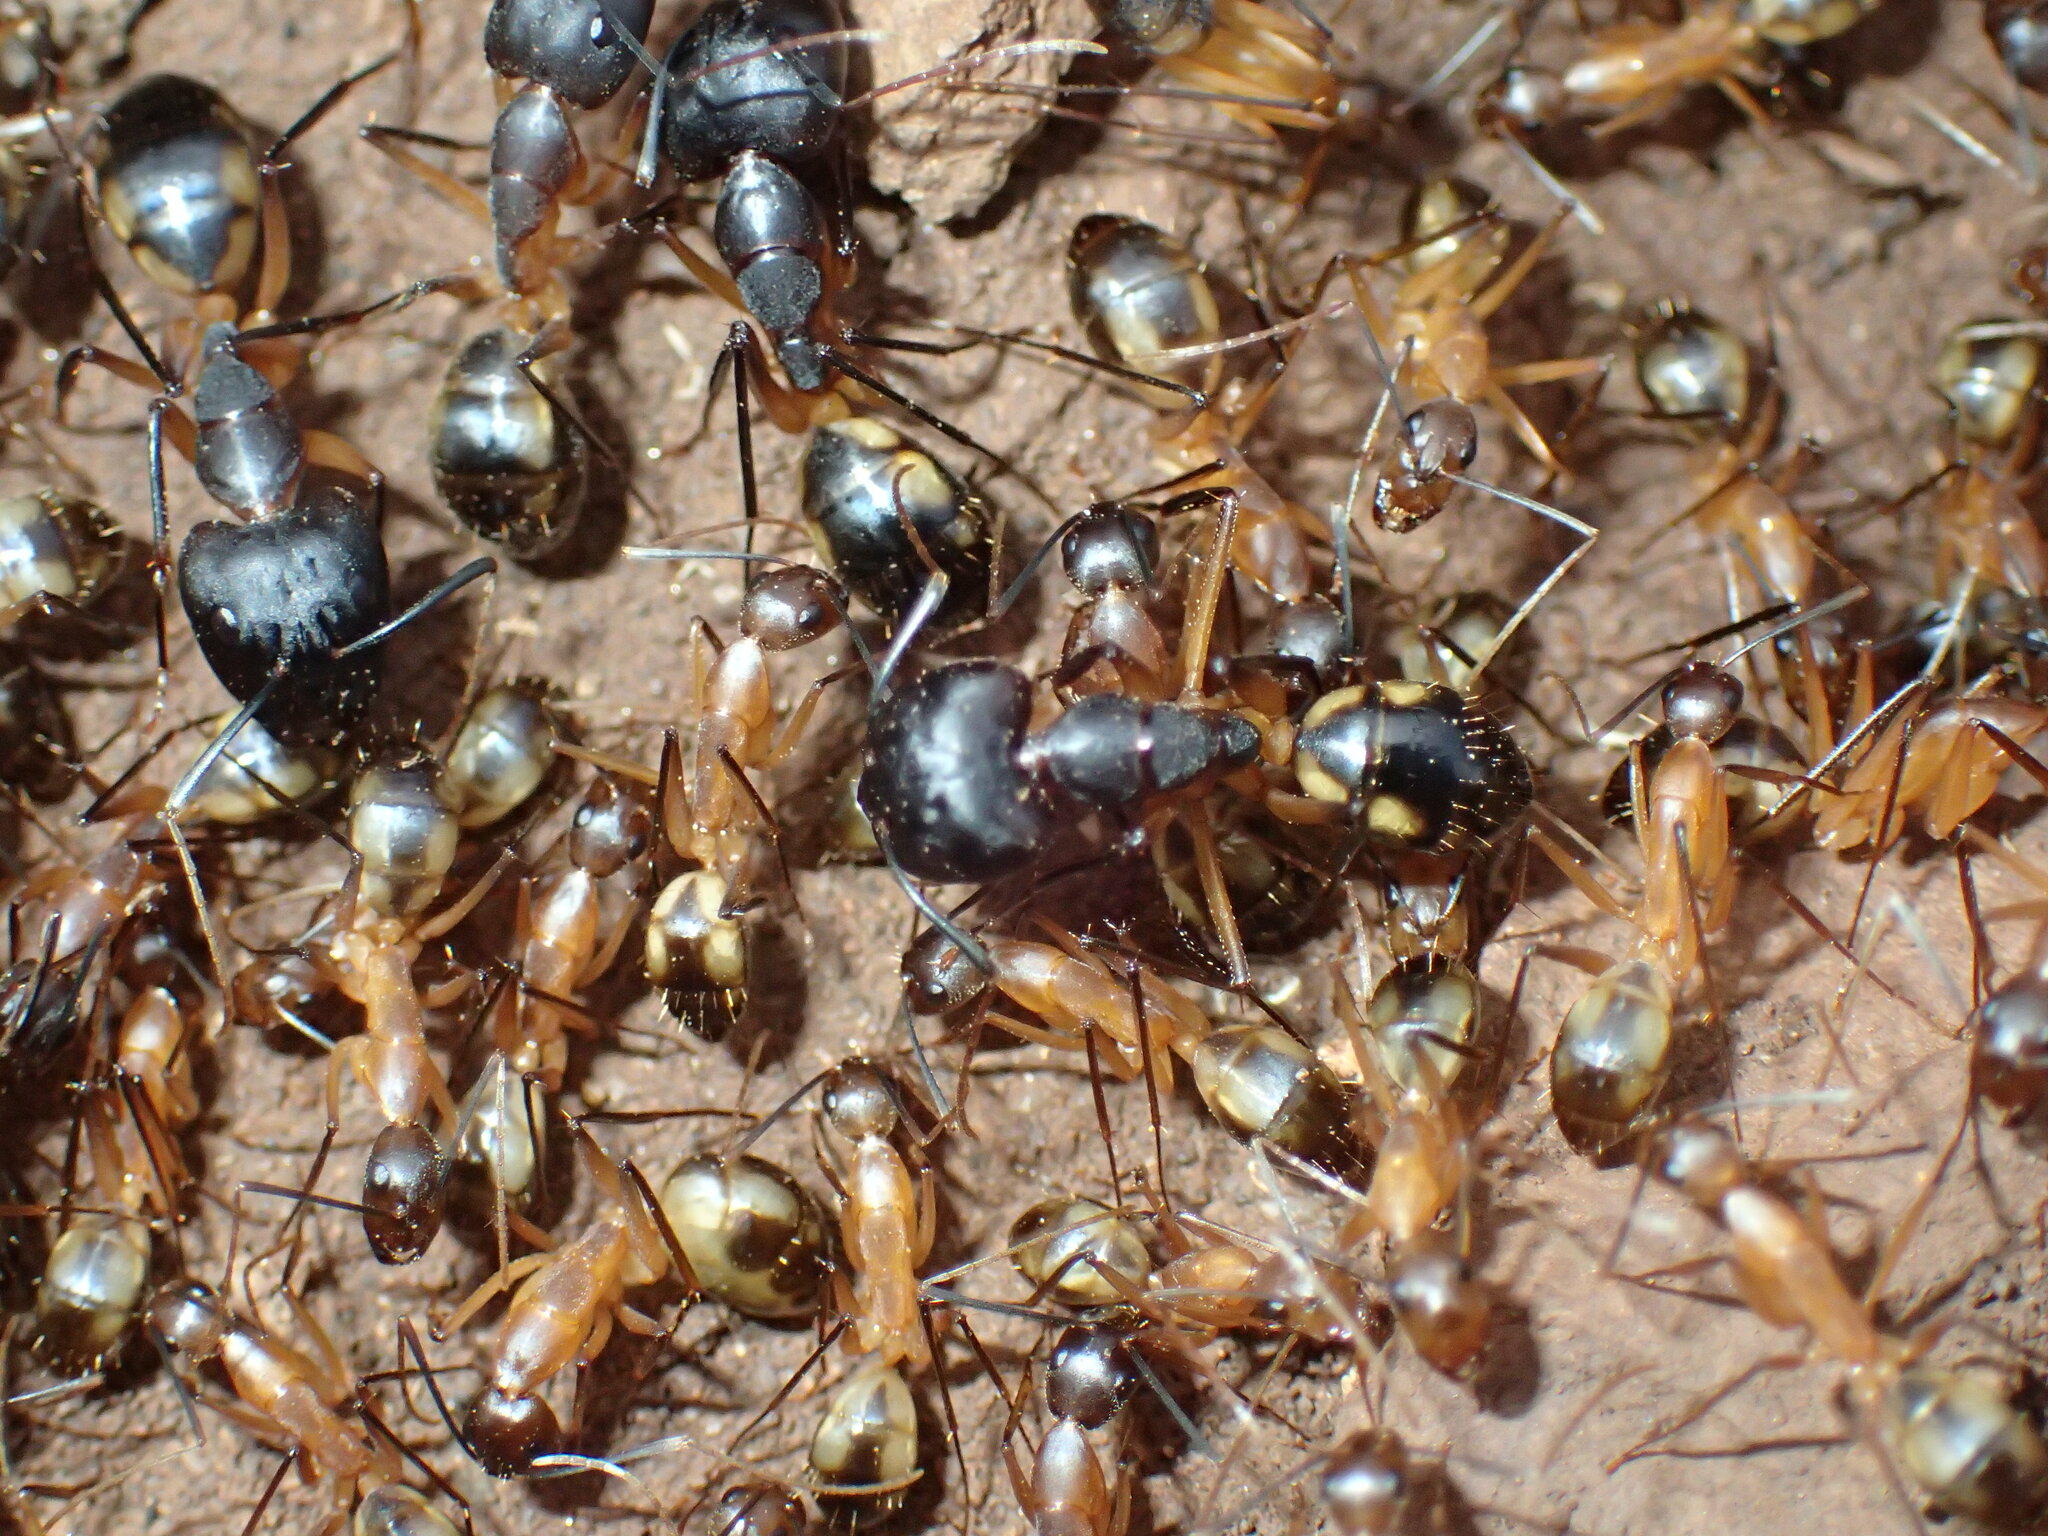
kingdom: Animalia
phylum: Arthropoda
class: Insecta
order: Hymenoptera
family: Formicidae
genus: Camponotus
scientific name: Camponotus maculatus
